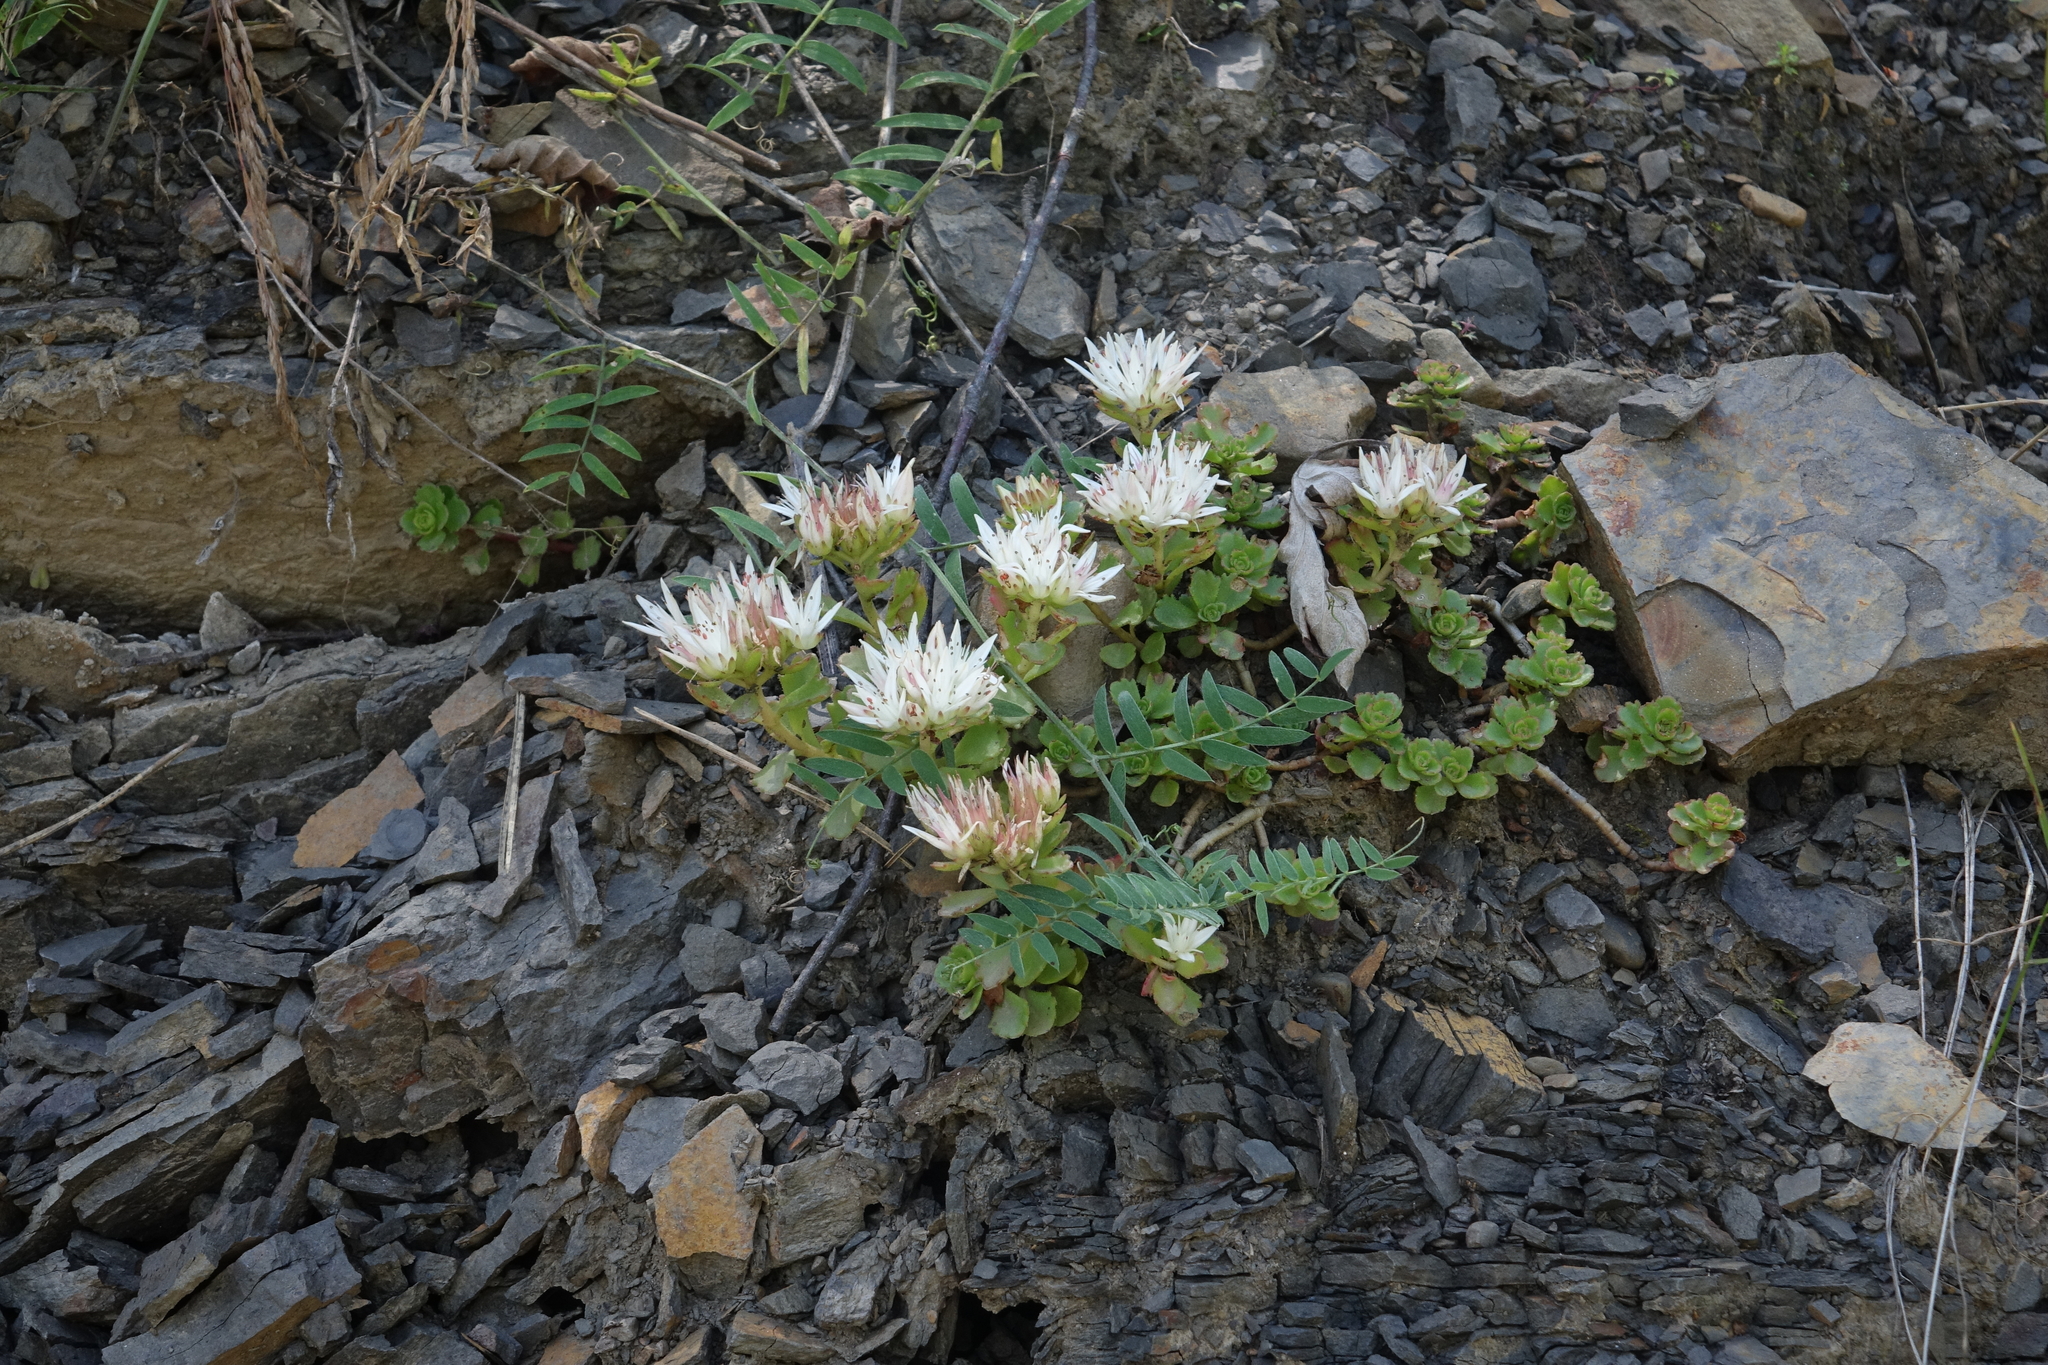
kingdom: Plantae
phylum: Tracheophyta
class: Magnoliopsida
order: Saxifragales
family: Crassulaceae
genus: Phedimus
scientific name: Phedimus spurius
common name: Caucasian stonecrop
